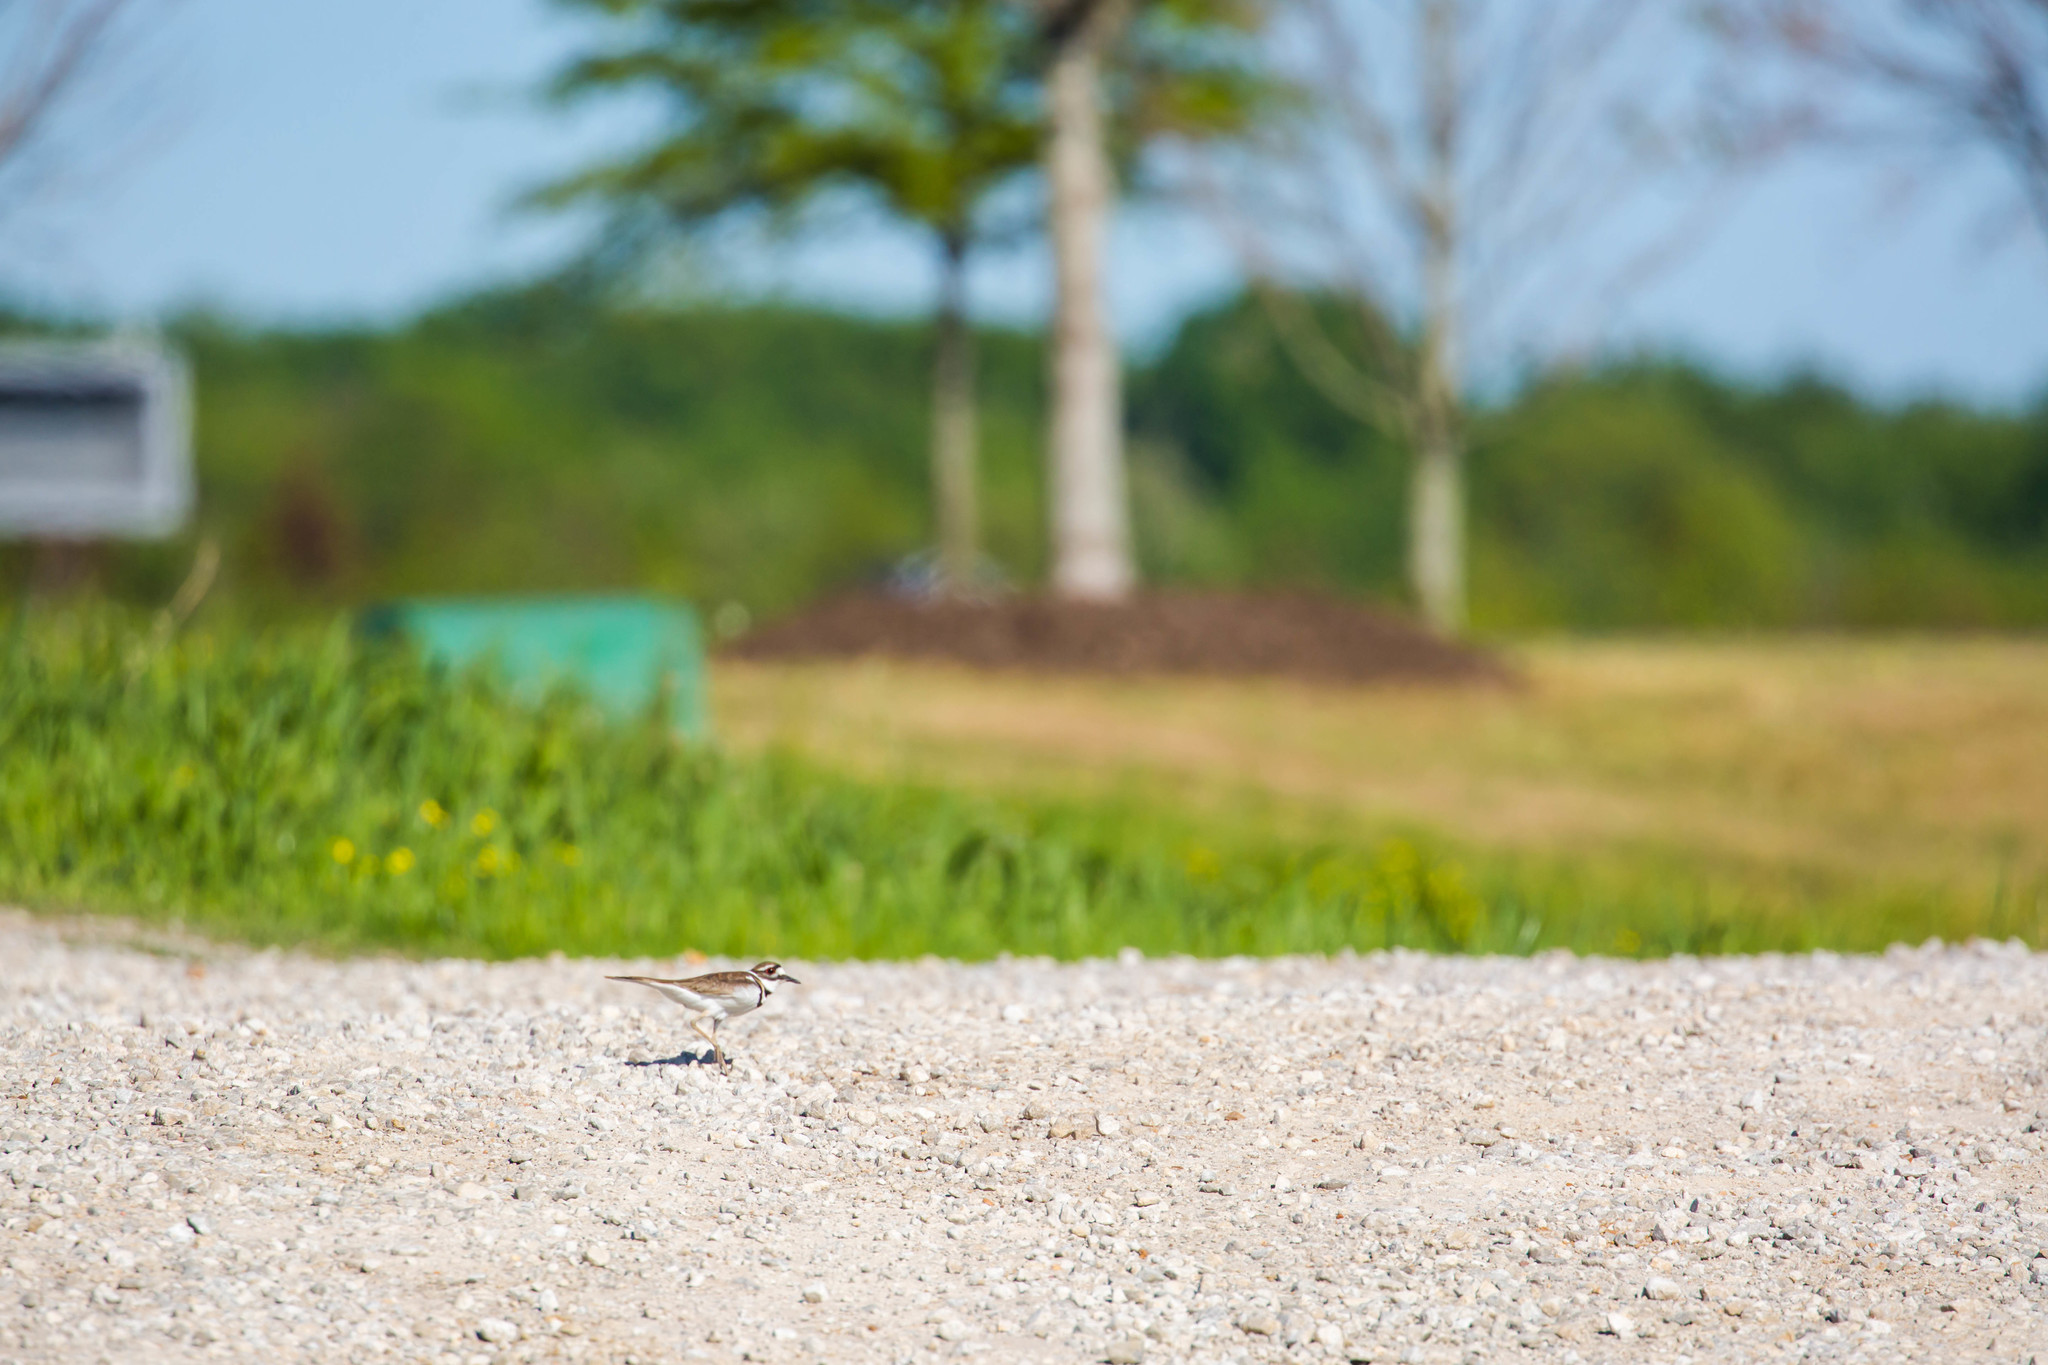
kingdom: Animalia
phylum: Chordata
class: Aves
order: Charadriiformes
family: Charadriidae
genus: Charadrius
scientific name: Charadrius vociferus
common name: Killdeer
